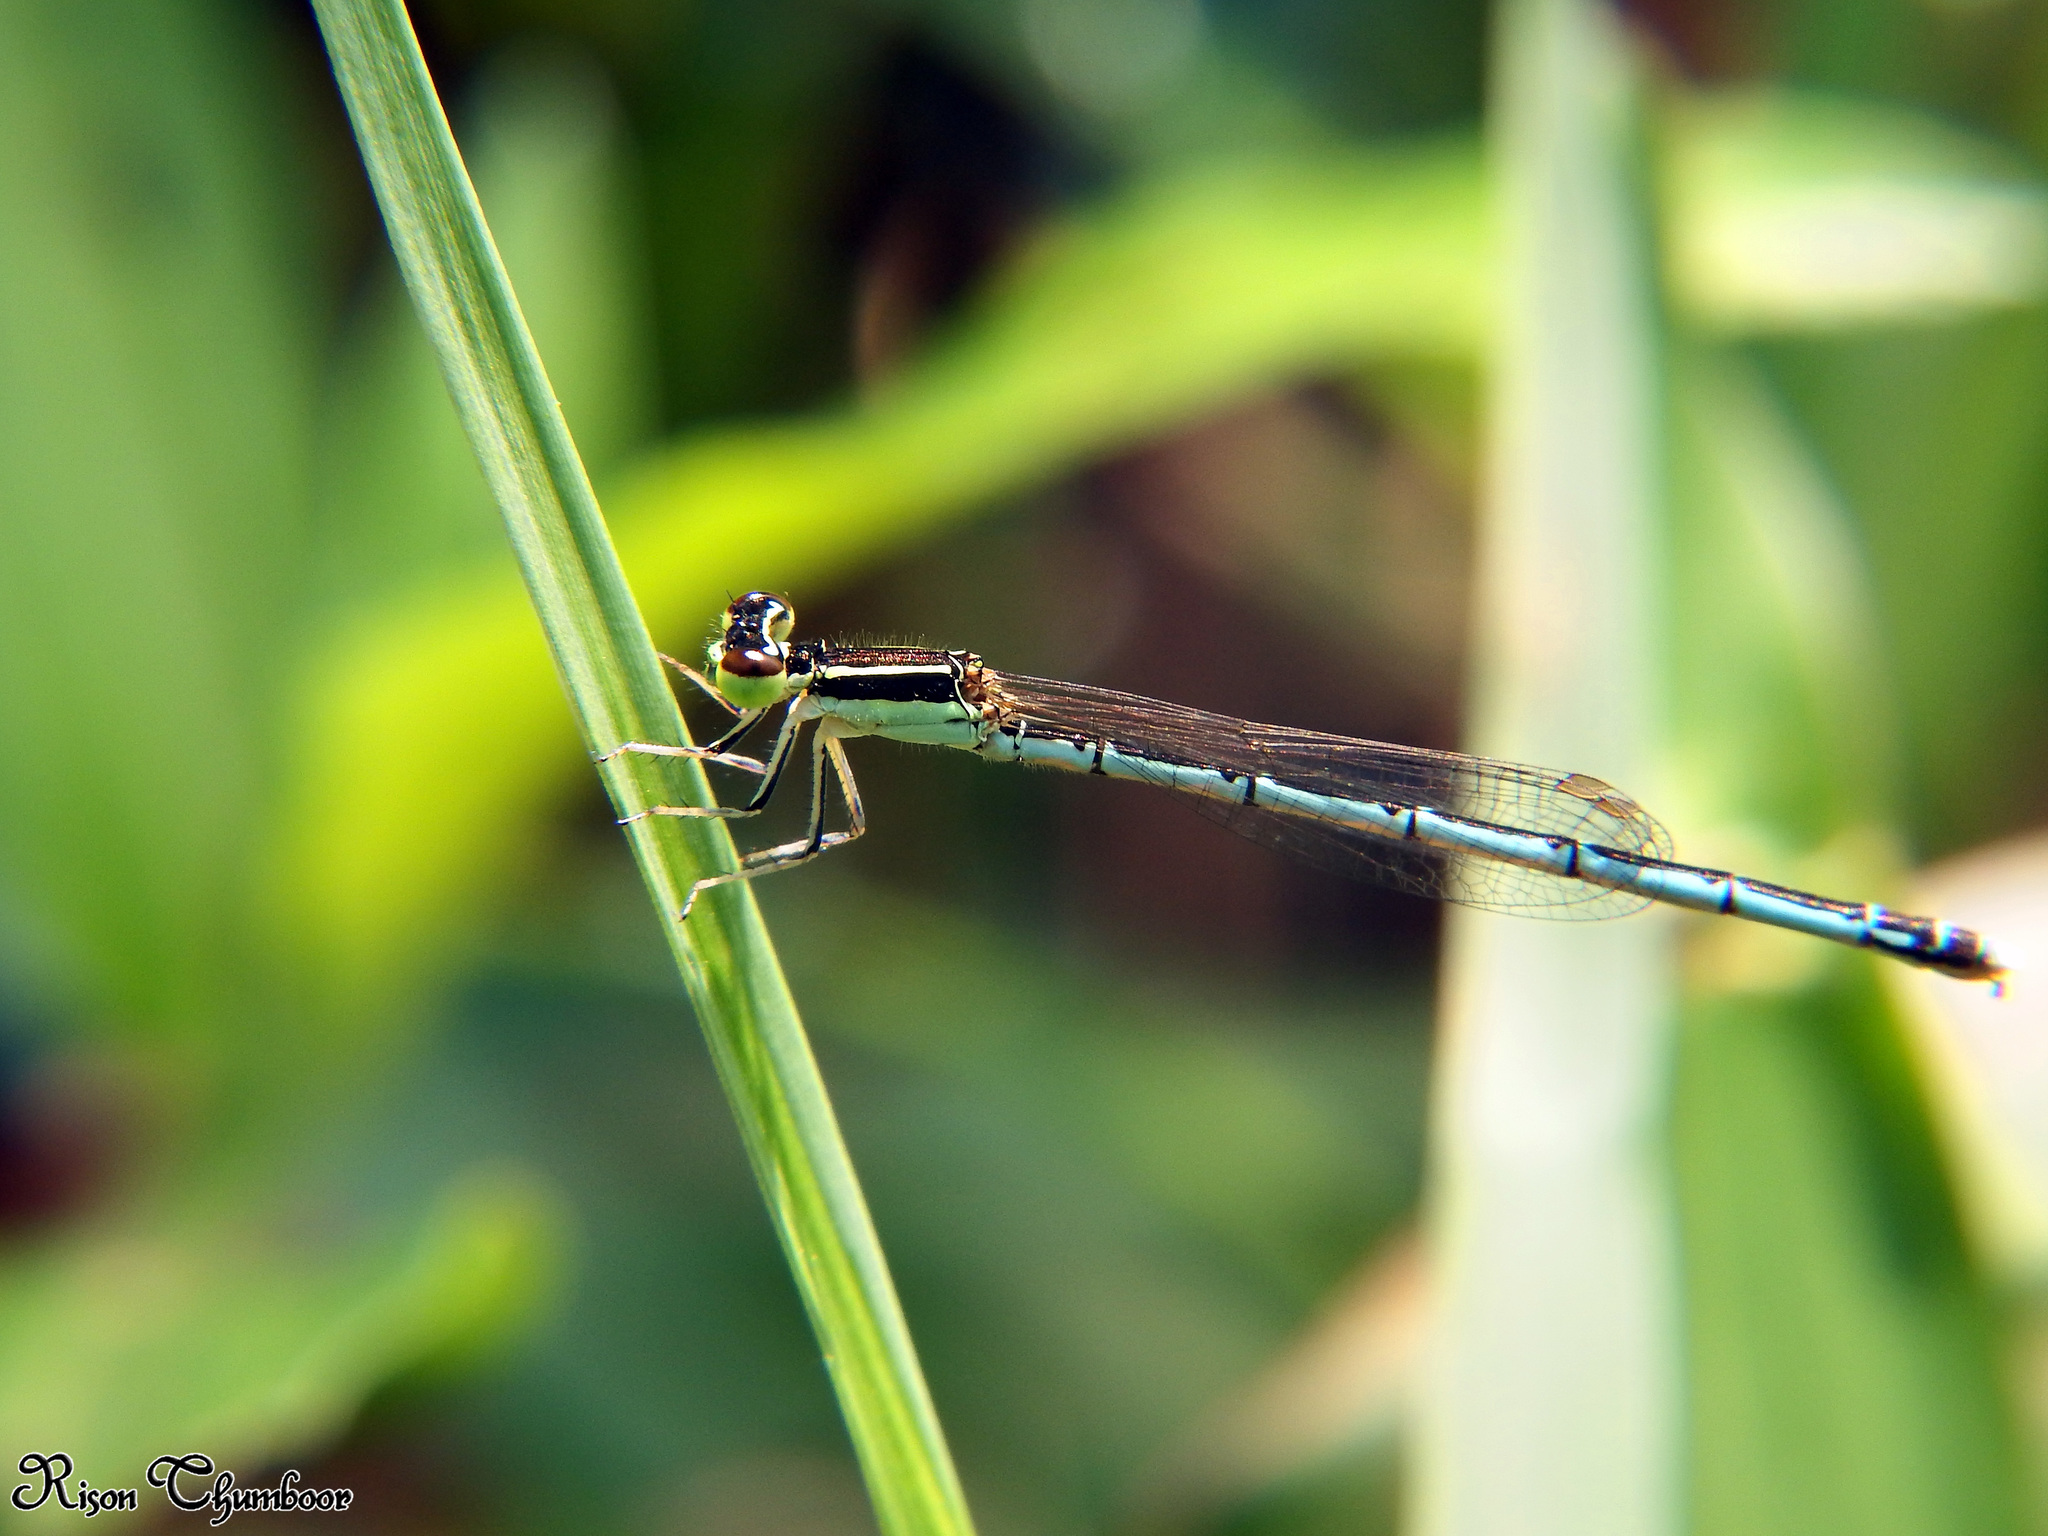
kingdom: Animalia
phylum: Arthropoda
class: Insecta
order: Odonata
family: Coenagrionidae
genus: Agriocnemis
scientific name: Agriocnemis pieris
